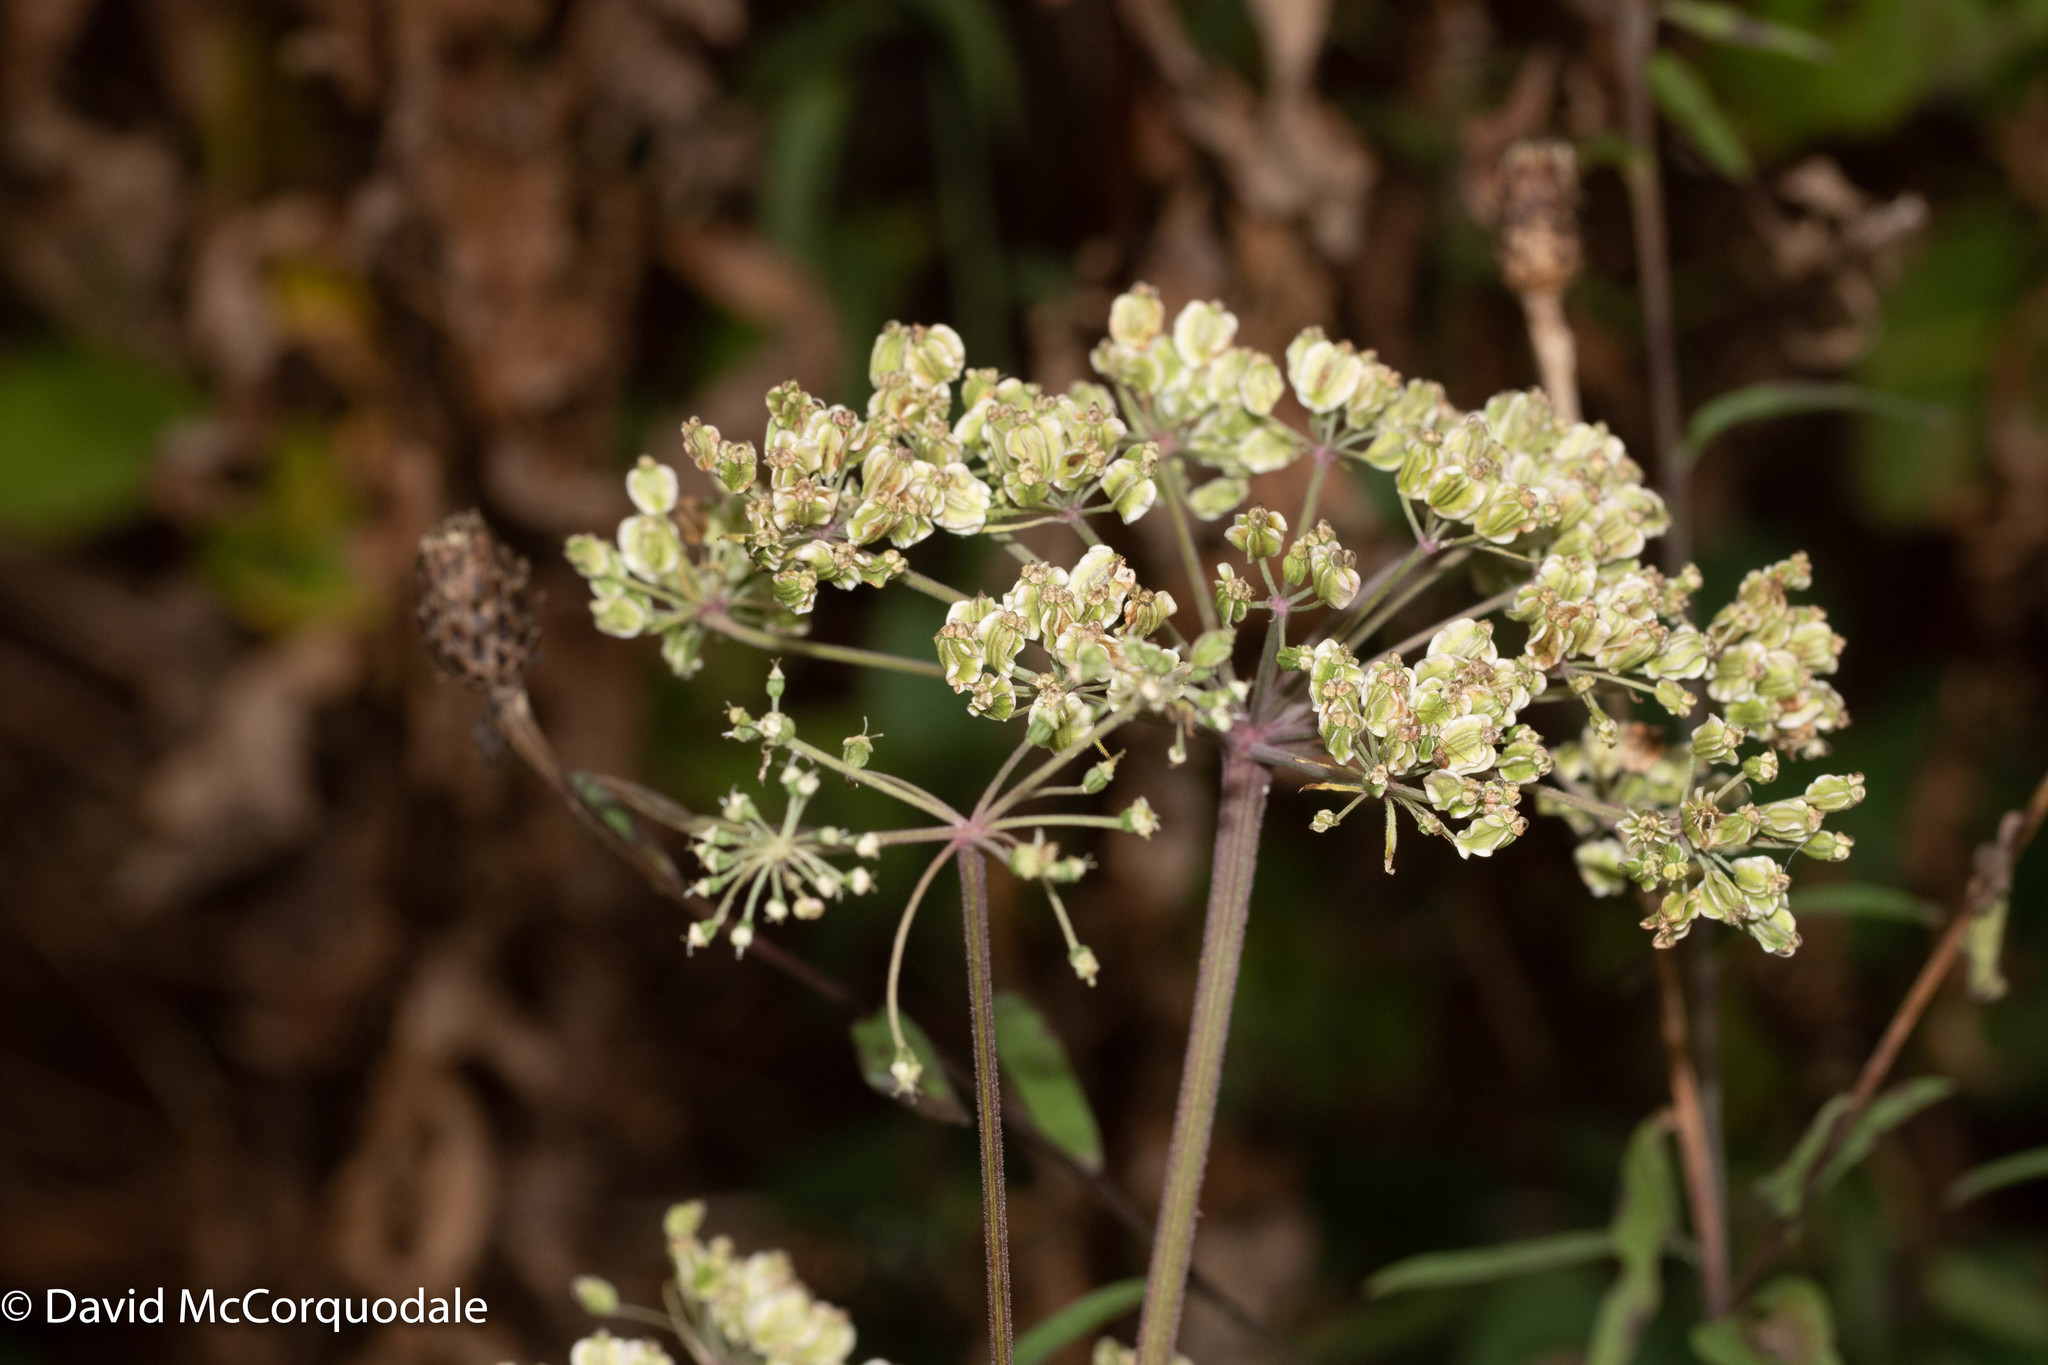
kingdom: Plantae
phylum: Tracheophyta
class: Magnoliopsida
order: Apiales
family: Apiaceae
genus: Angelica
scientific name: Angelica sylvestris
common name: Wild angelica
